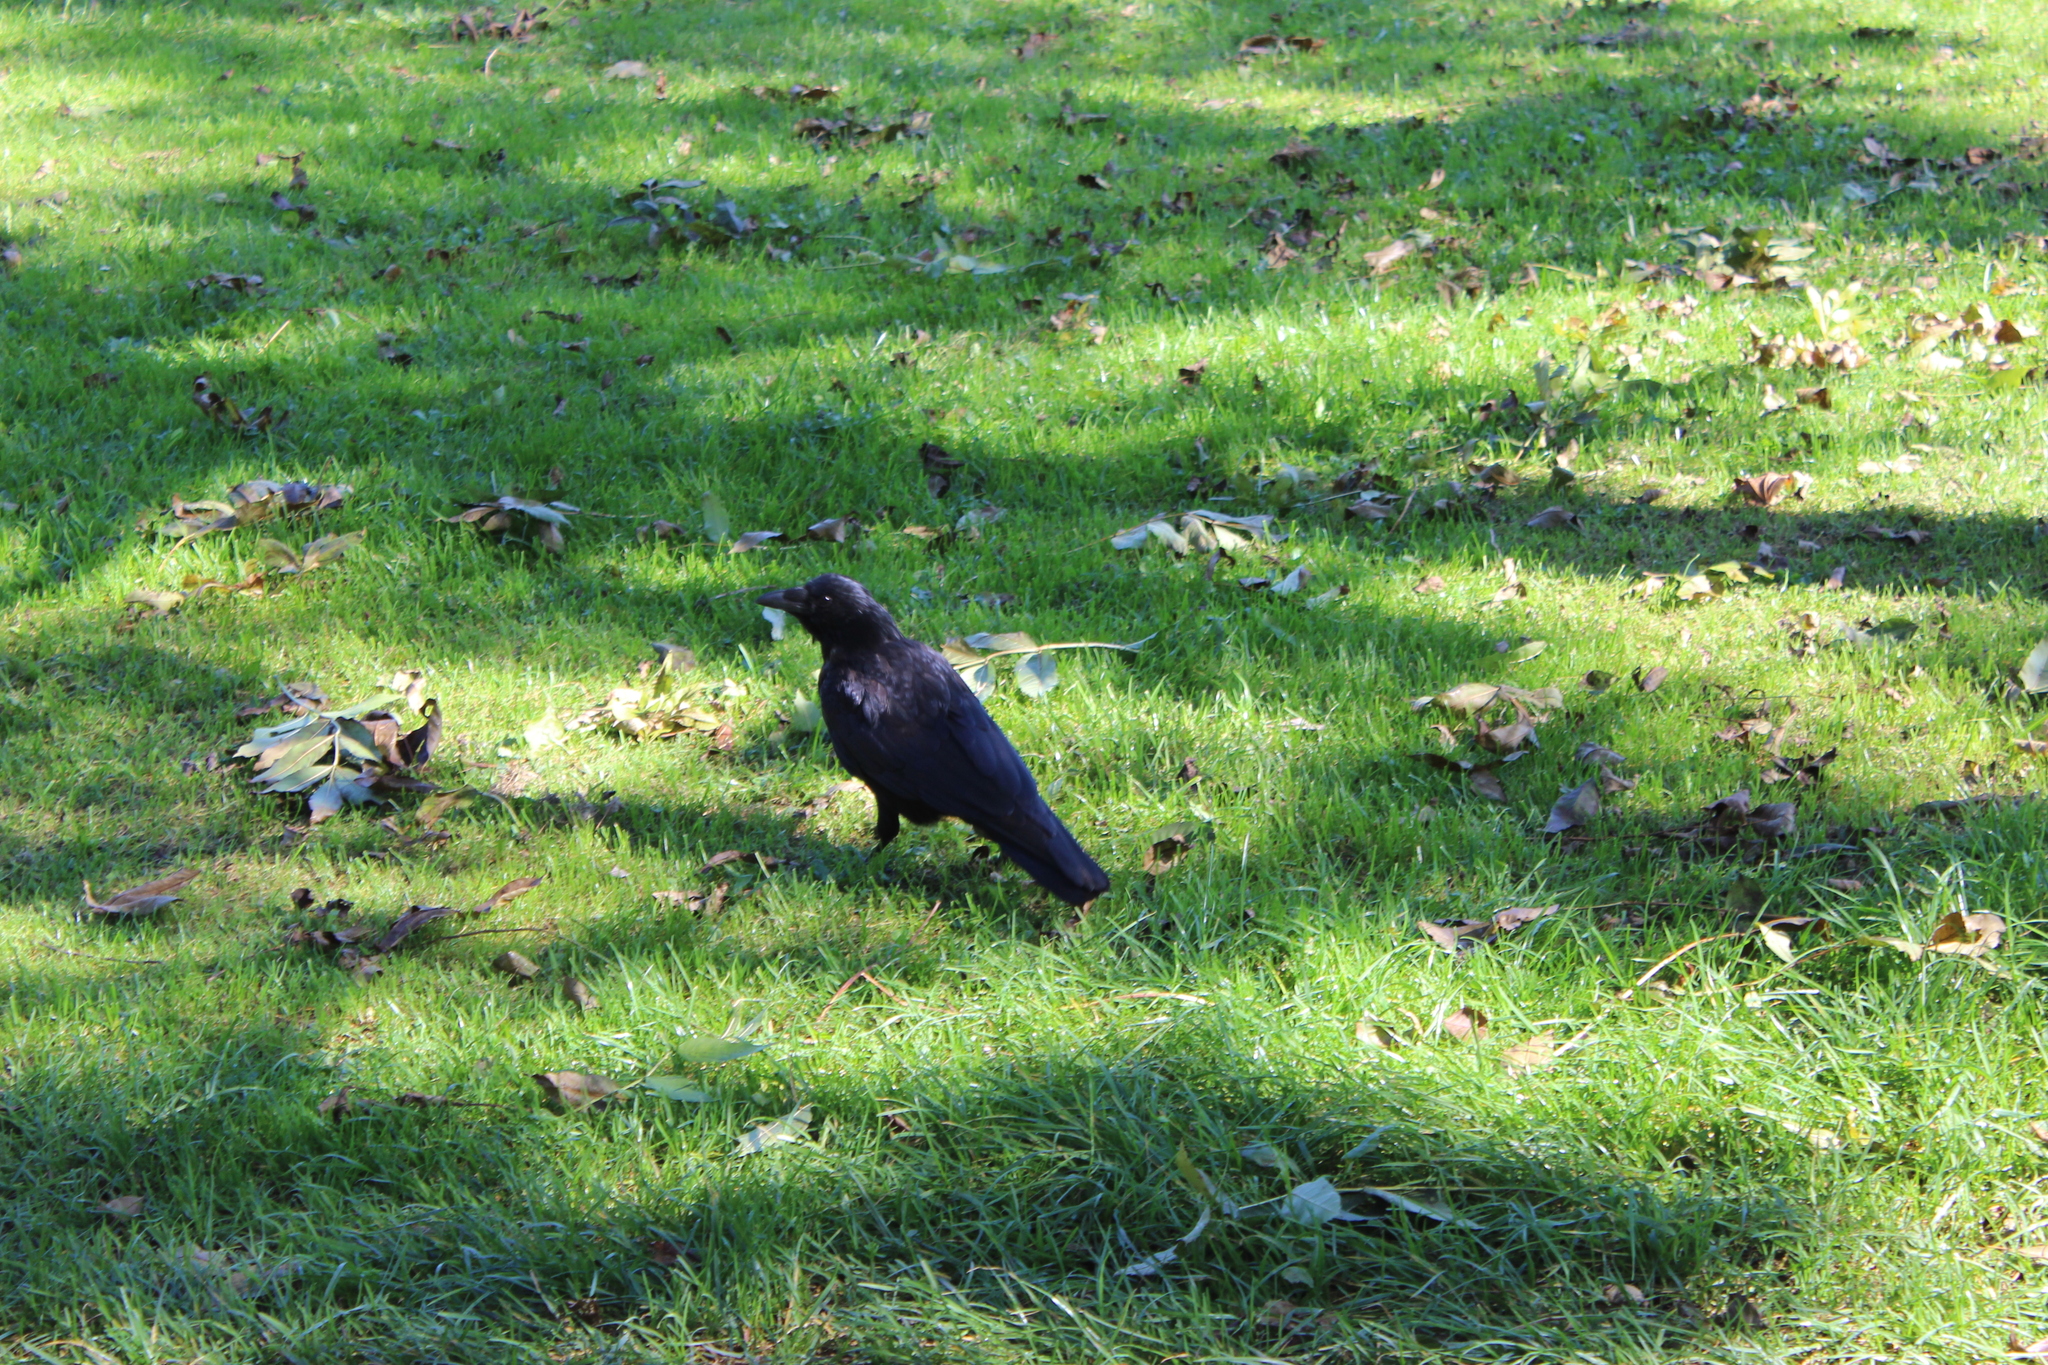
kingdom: Animalia
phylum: Chordata
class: Aves
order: Passeriformes
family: Corvidae
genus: Corvus
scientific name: Corvus corone
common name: Carrion crow
